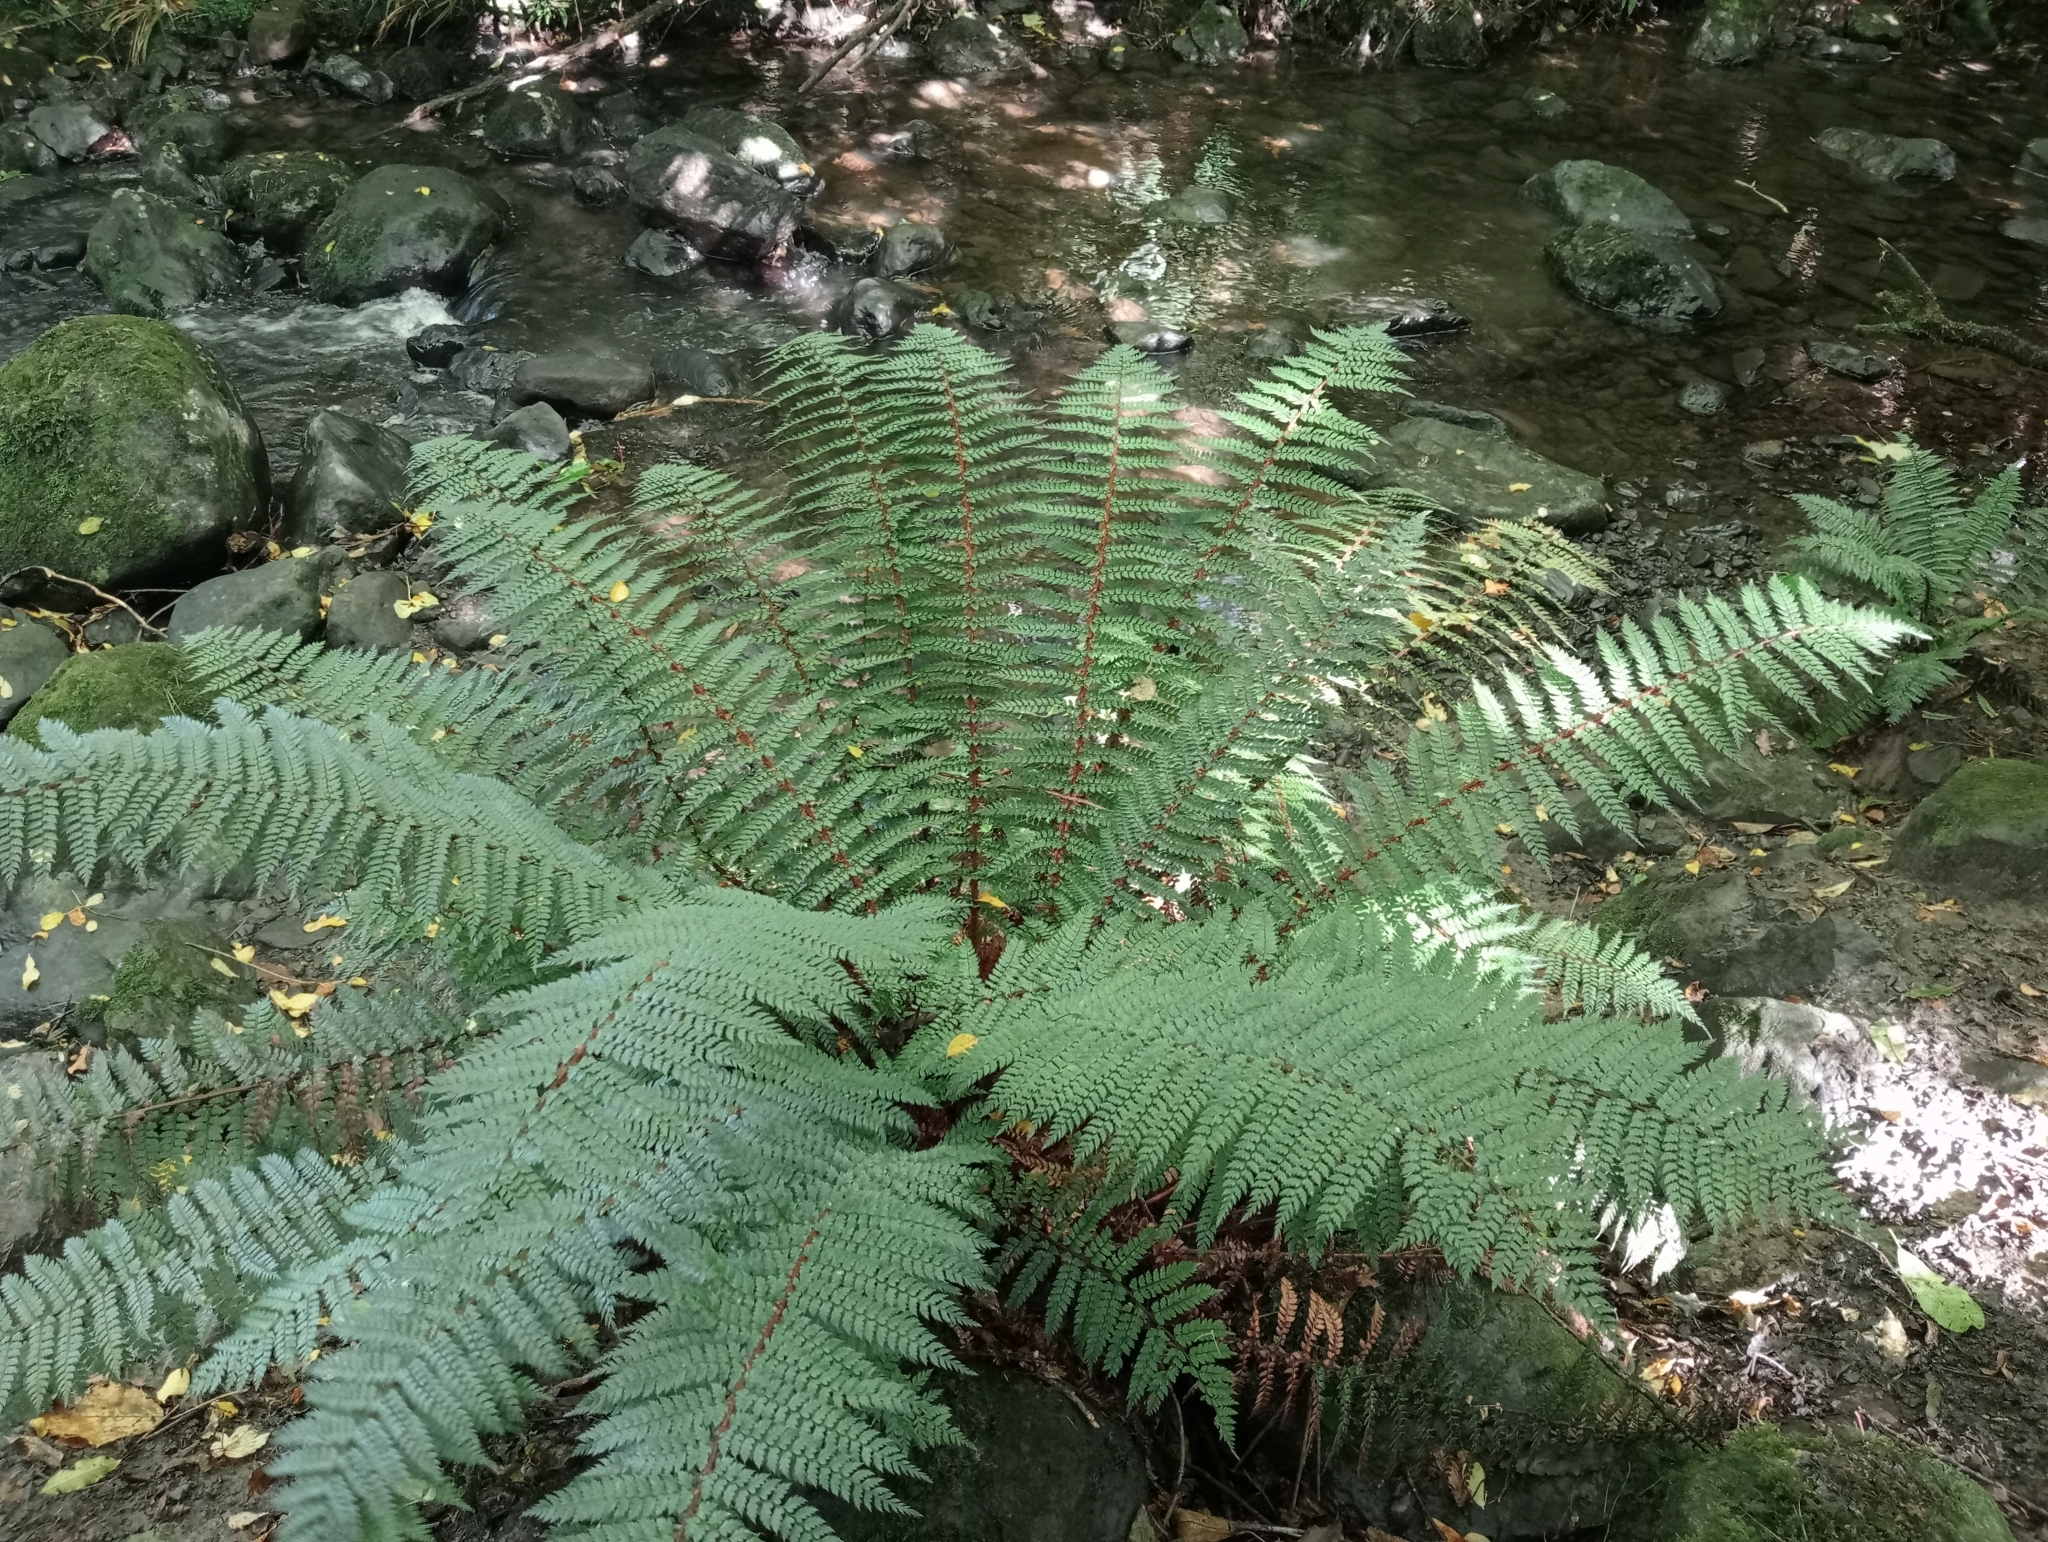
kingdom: Plantae
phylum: Tracheophyta
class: Polypodiopsida
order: Polypodiales
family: Dryopteridaceae
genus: Polystichum
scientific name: Polystichum vestitum
